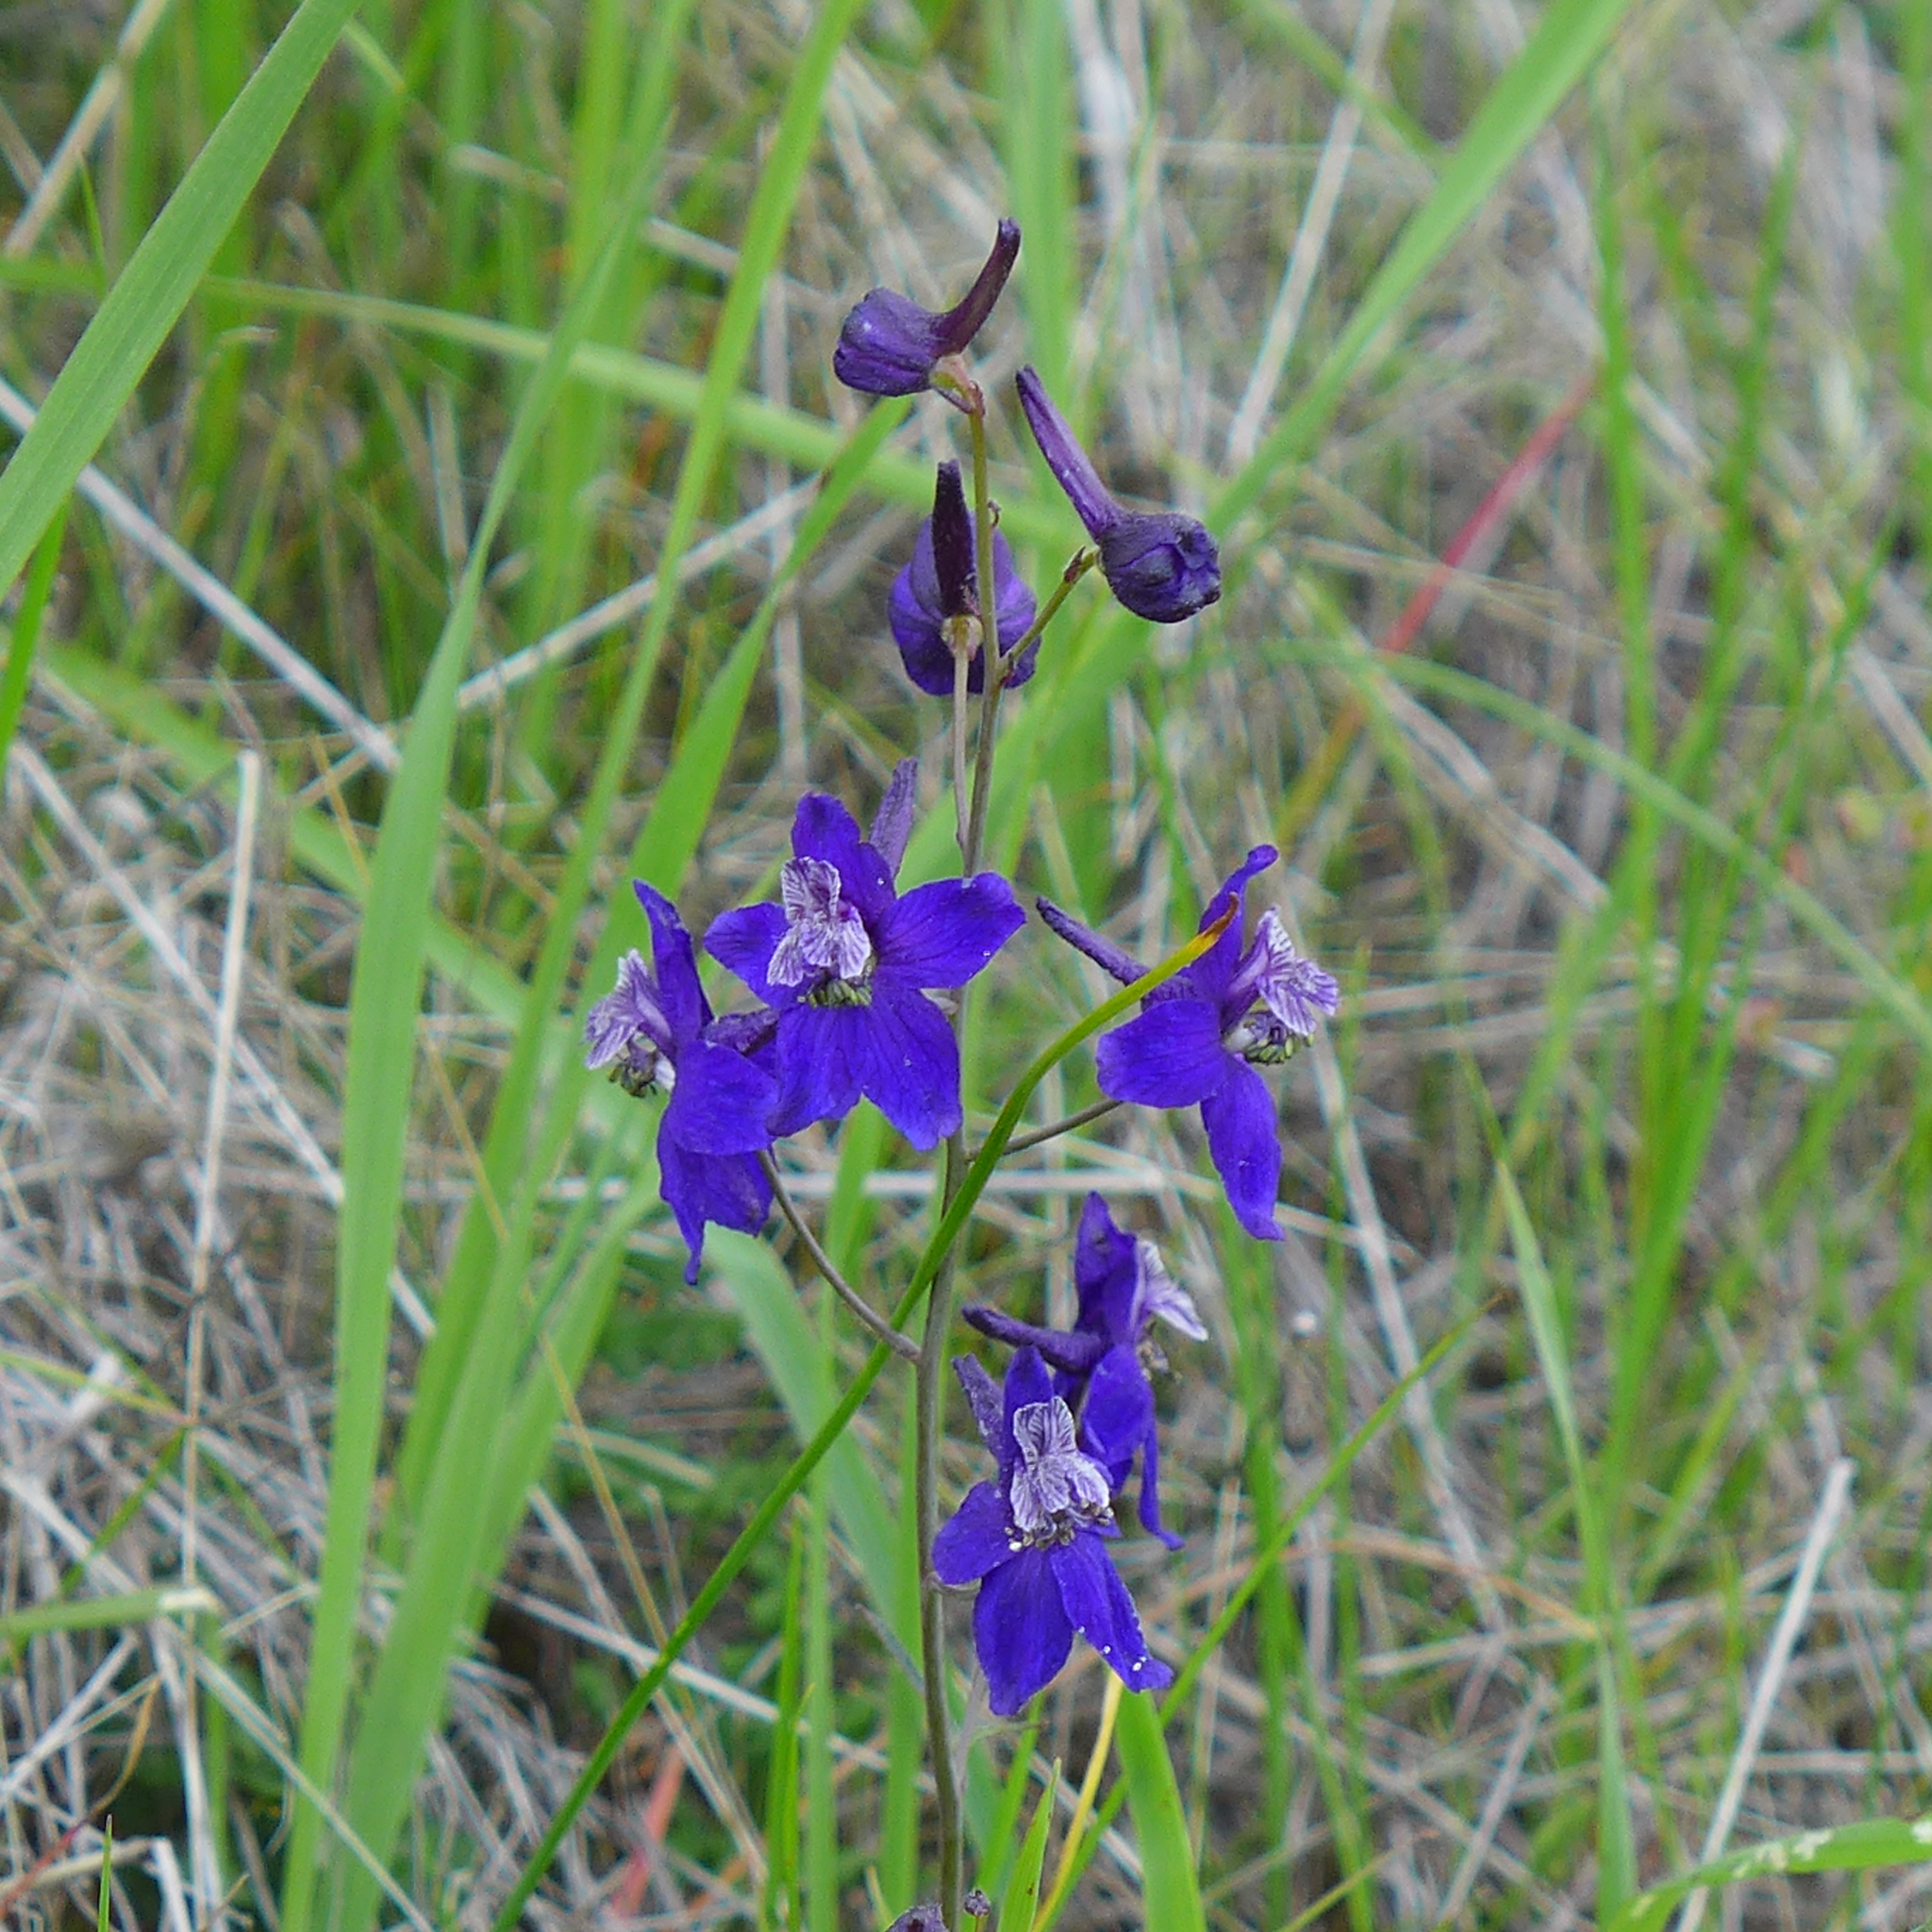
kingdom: Plantae
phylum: Tracheophyta
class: Magnoliopsida
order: Ranunculales
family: Ranunculaceae
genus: Delphinium
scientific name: Delphinium patens
